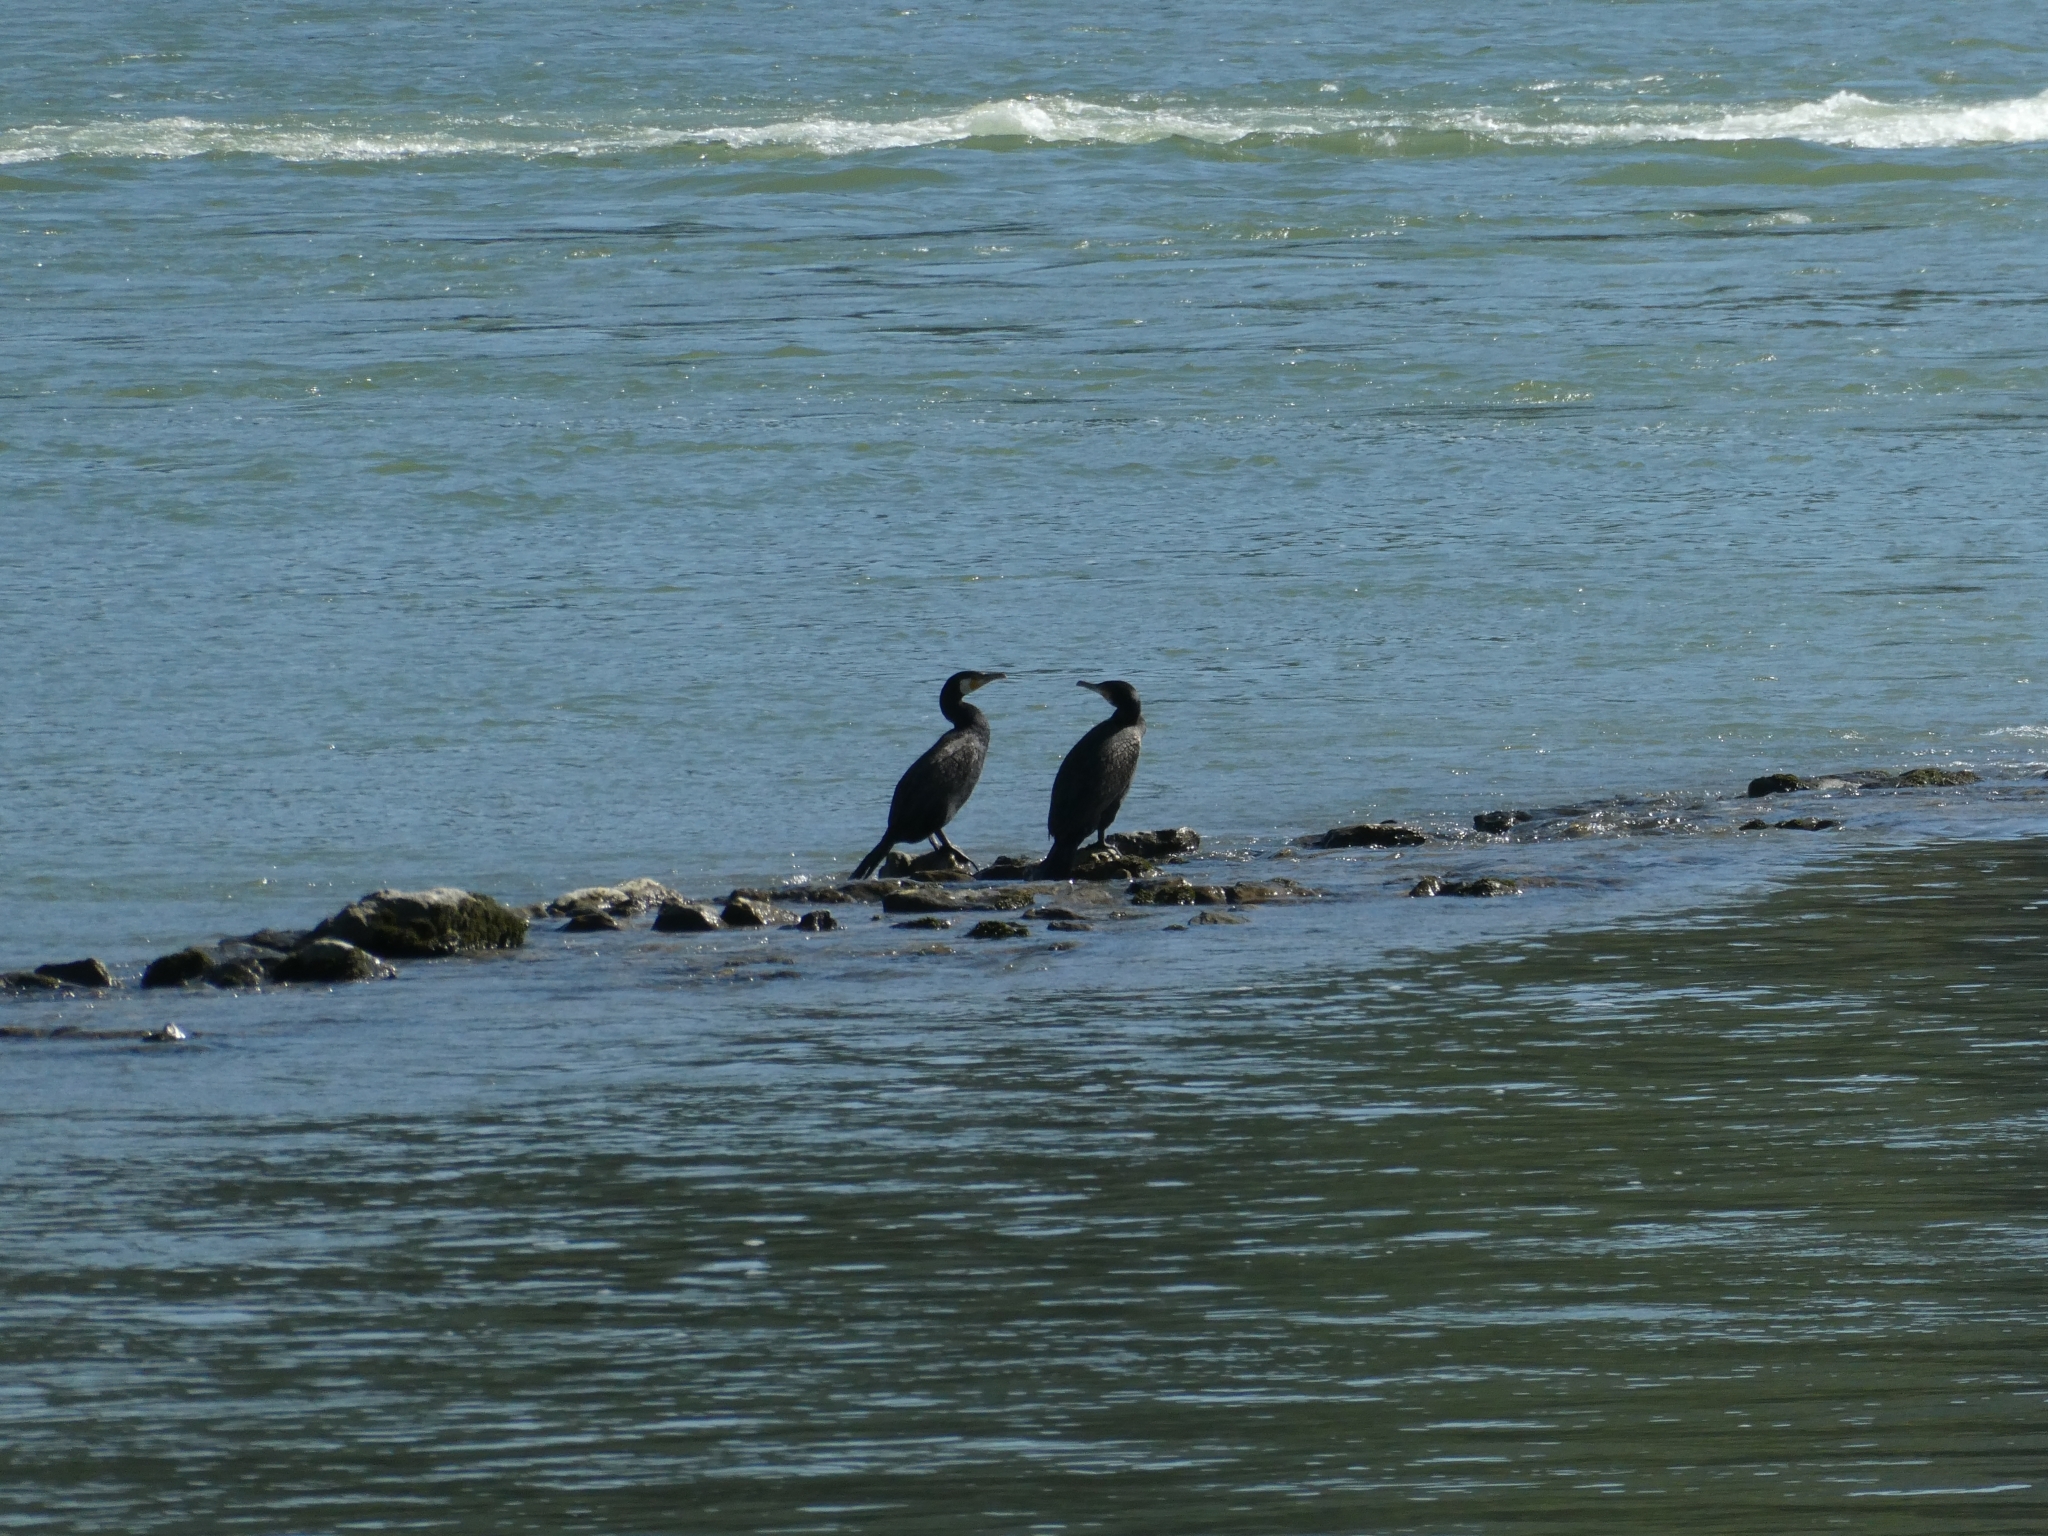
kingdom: Animalia
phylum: Chordata
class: Aves
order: Suliformes
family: Phalacrocoracidae
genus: Phalacrocorax
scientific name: Phalacrocorax carbo
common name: Great cormorant
